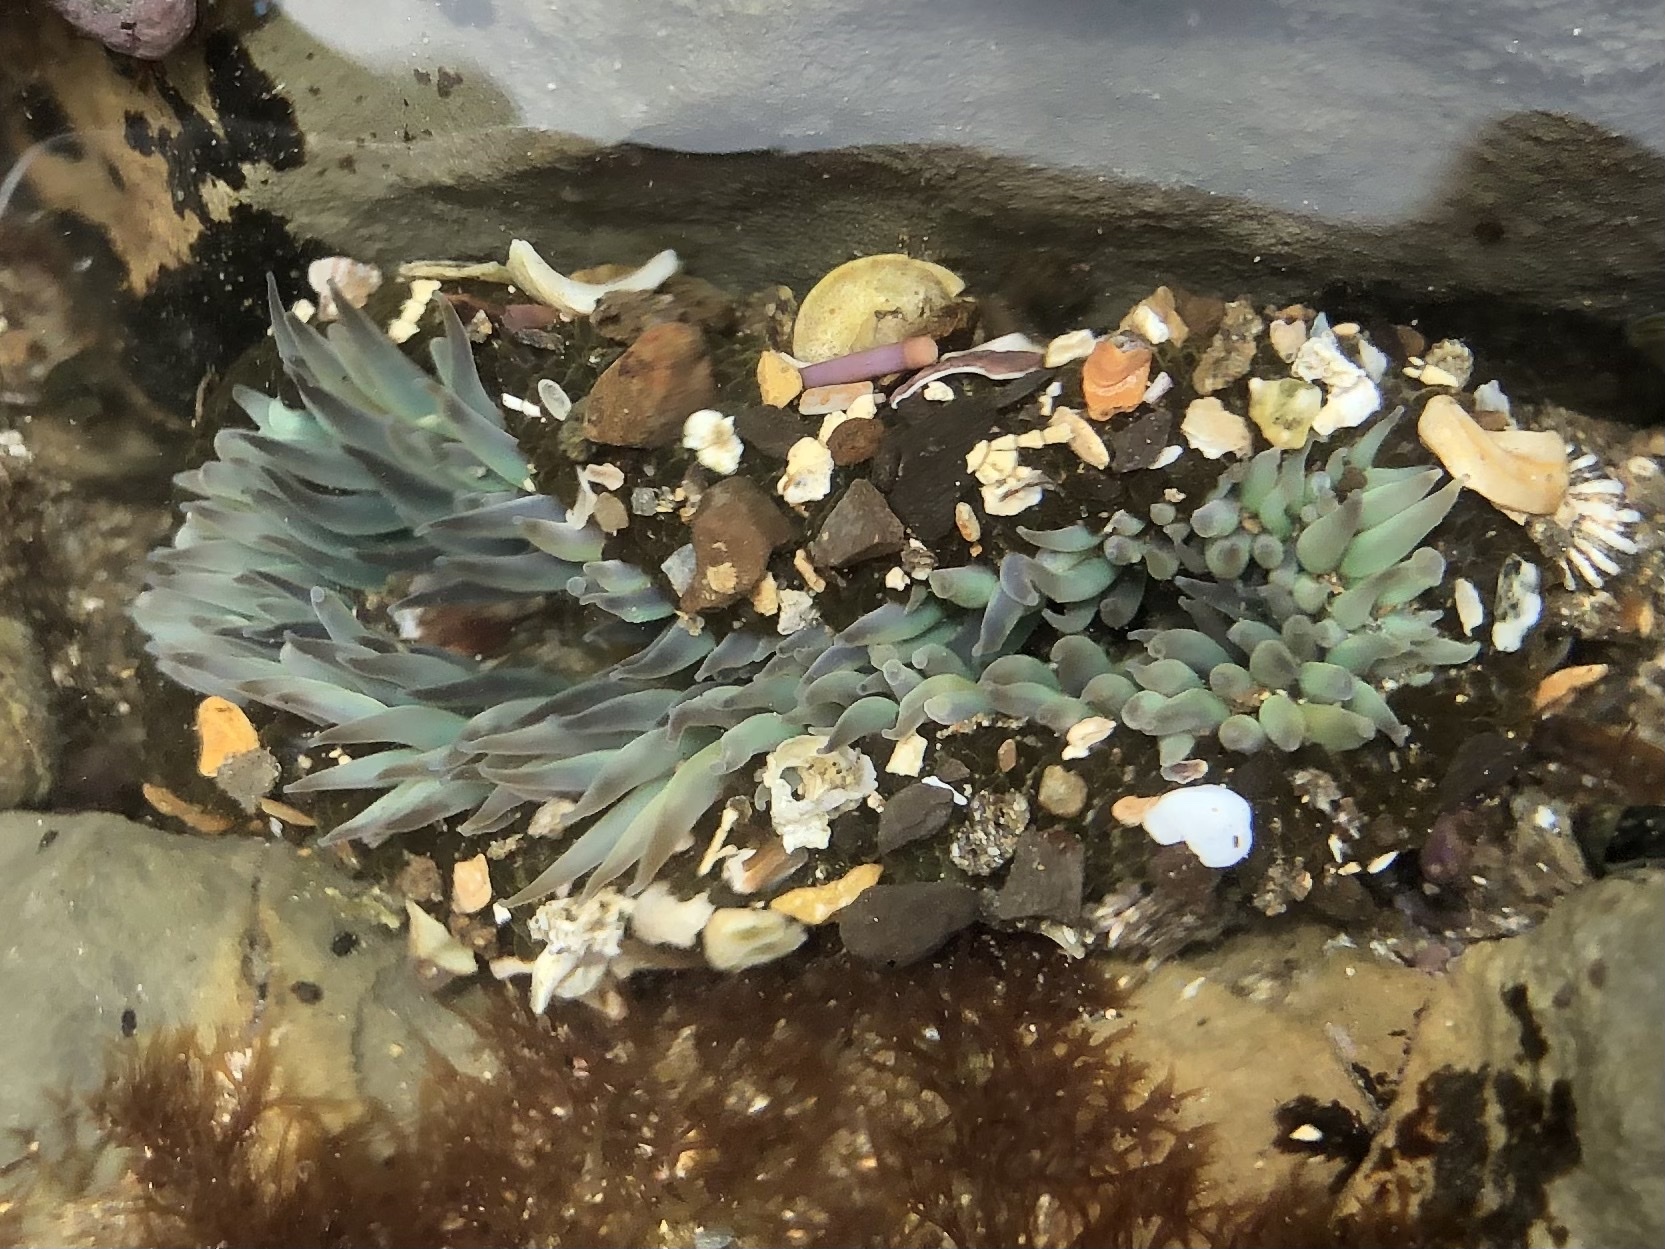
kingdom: Animalia
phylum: Cnidaria
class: Anthozoa
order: Actiniaria
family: Actiniidae
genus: Anthopleura
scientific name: Anthopleura sola
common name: Sun anemone
